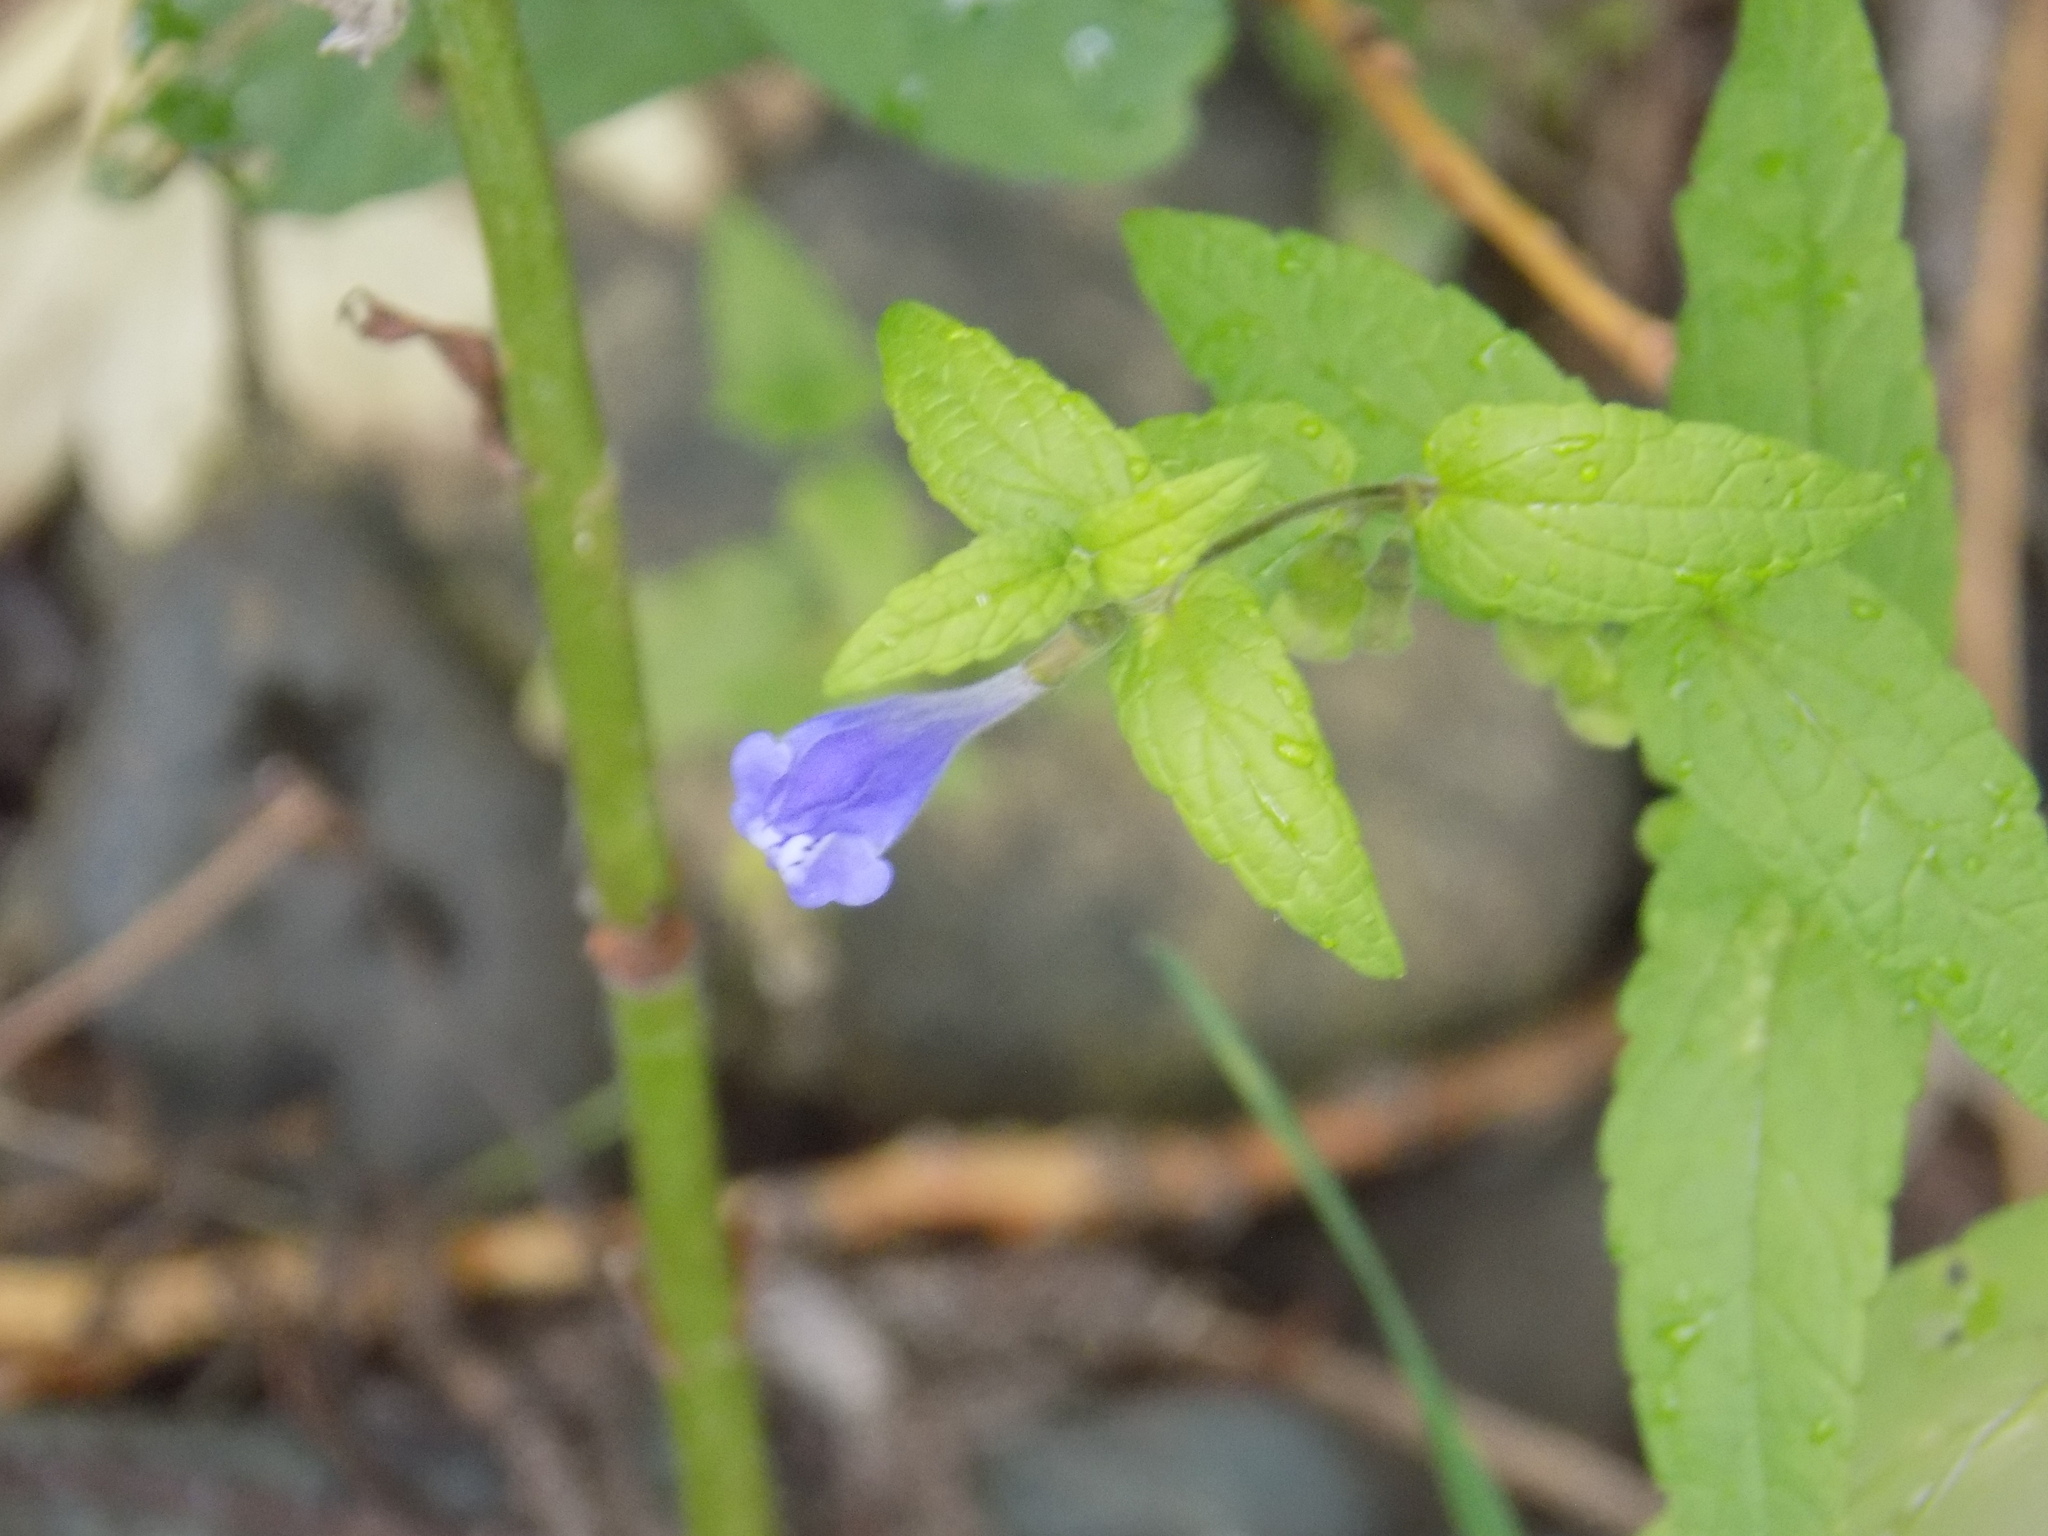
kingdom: Plantae
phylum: Tracheophyta
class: Magnoliopsida
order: Lamiales
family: Lamiaceae
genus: Scutellaria
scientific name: Scutellaria galericulata
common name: Skullcap
